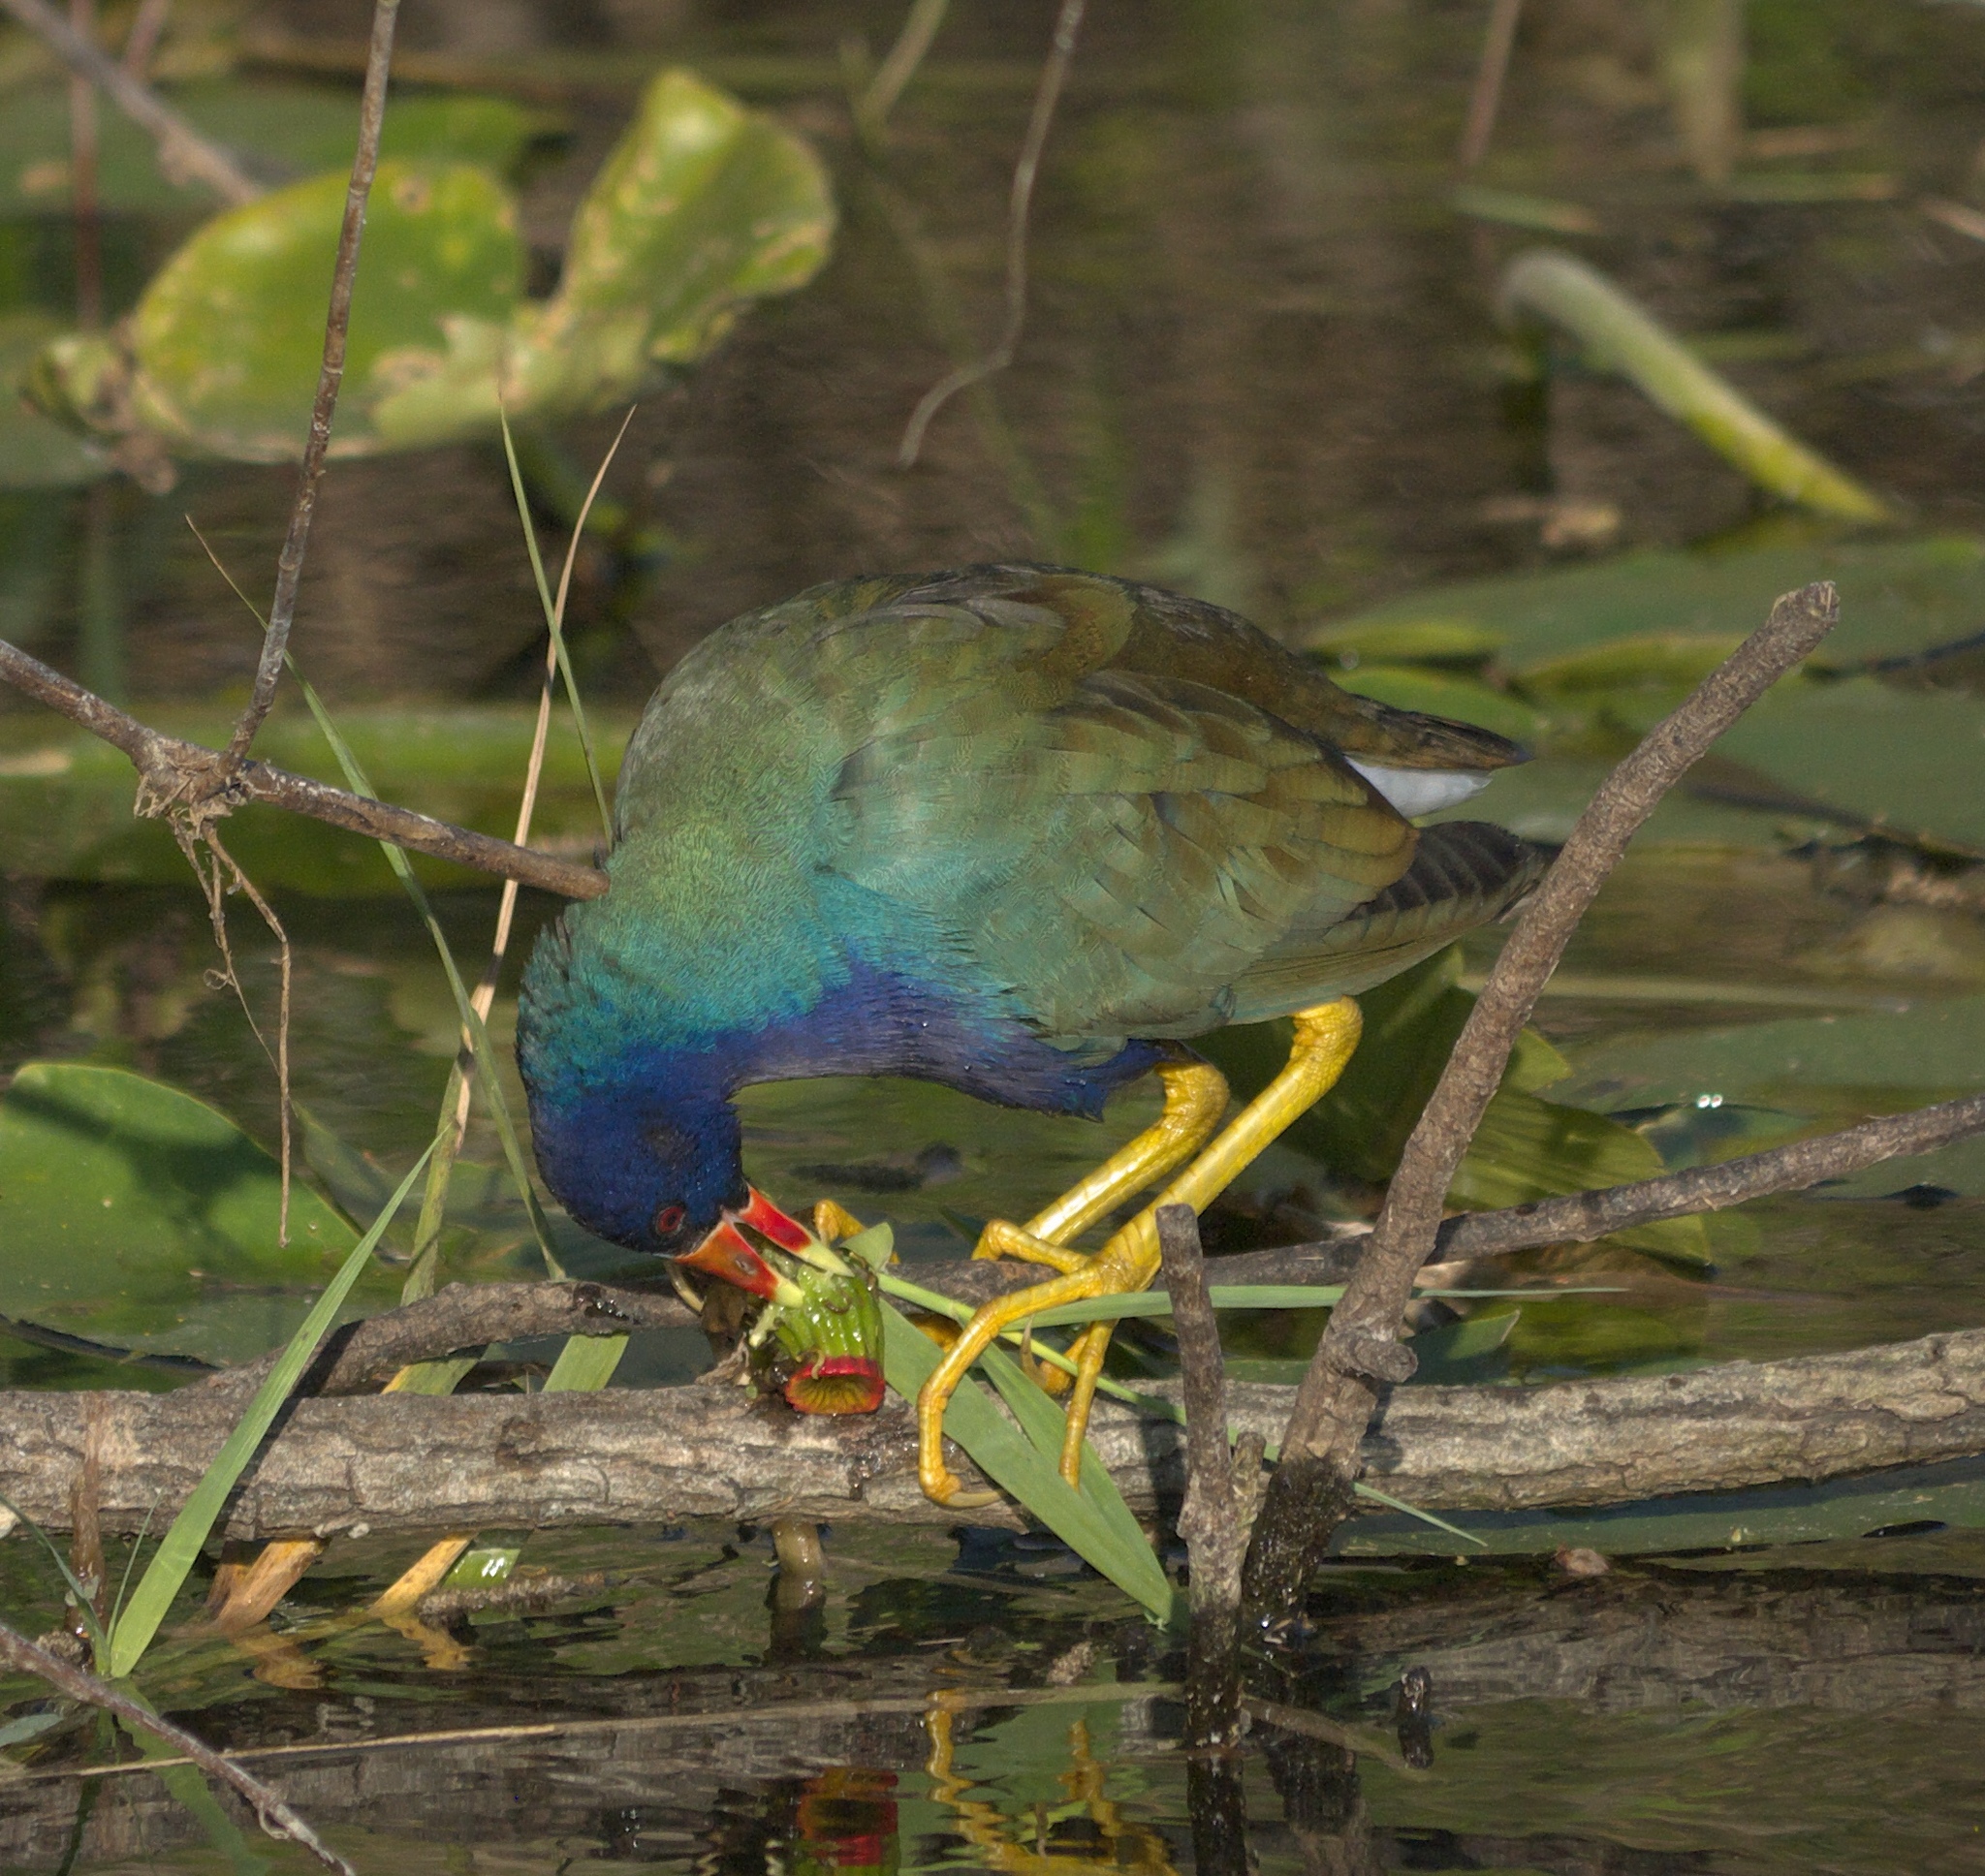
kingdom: Animalia
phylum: Chordata
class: Aves
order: Gruiformes
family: Rallidae
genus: Porphyrio
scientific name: Porphyrio martinica
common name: Purple gallinule
